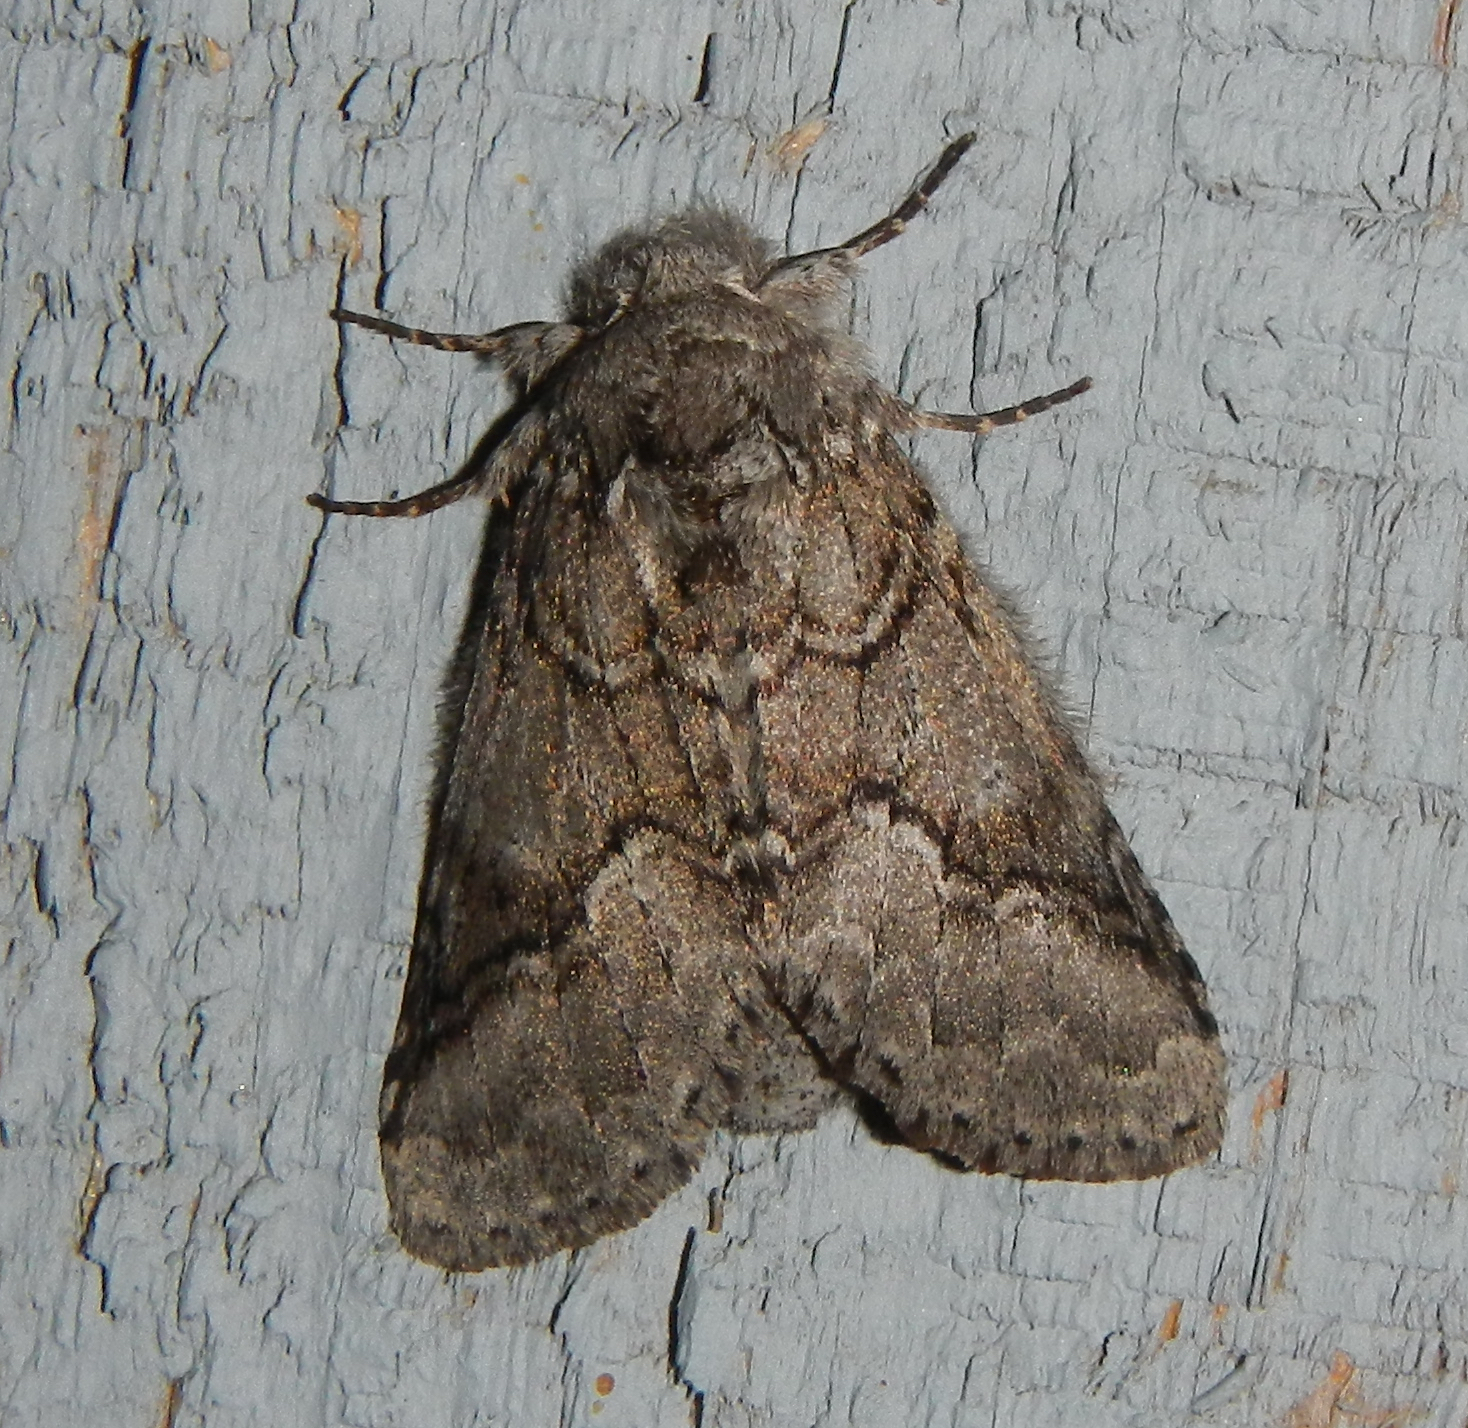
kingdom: Animalia
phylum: Arthropoda
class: Insecta
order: Lepidoptera
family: Notodontidae
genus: Lochmaeus
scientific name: Lochmaeus bilineata
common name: Double-lined prominent
